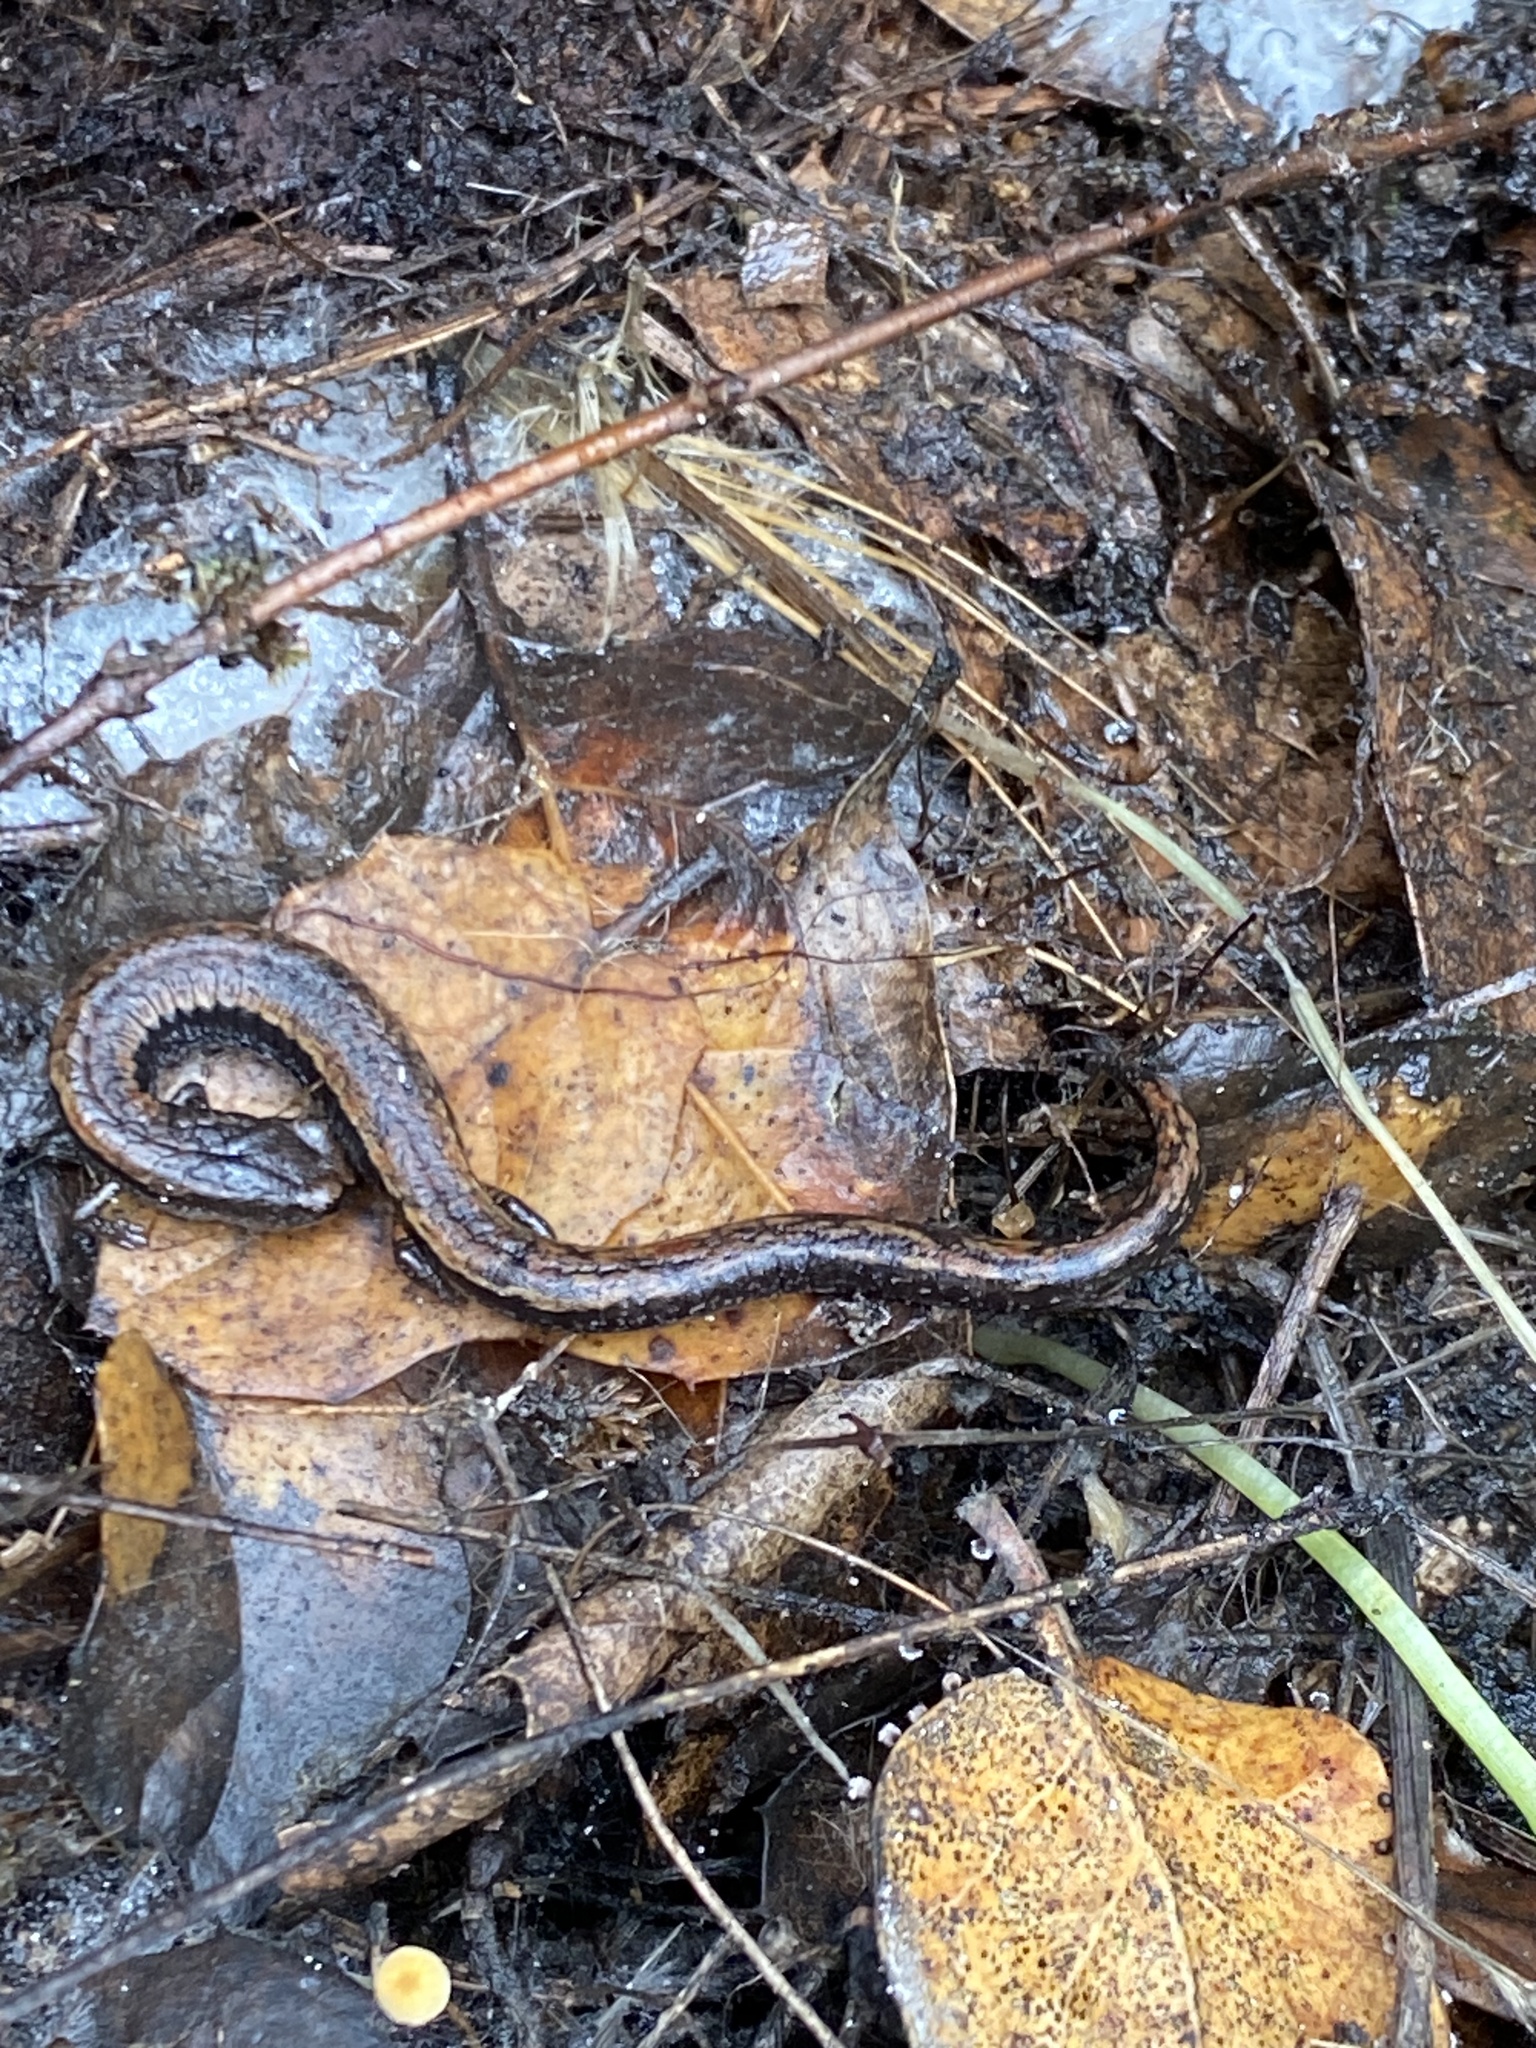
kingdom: Animalia
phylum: Chordata
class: Amphibia
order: Caudata
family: Plethodontidae
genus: Batrachoseps
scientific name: Batrachoseps attenuatus
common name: California slender salamander
